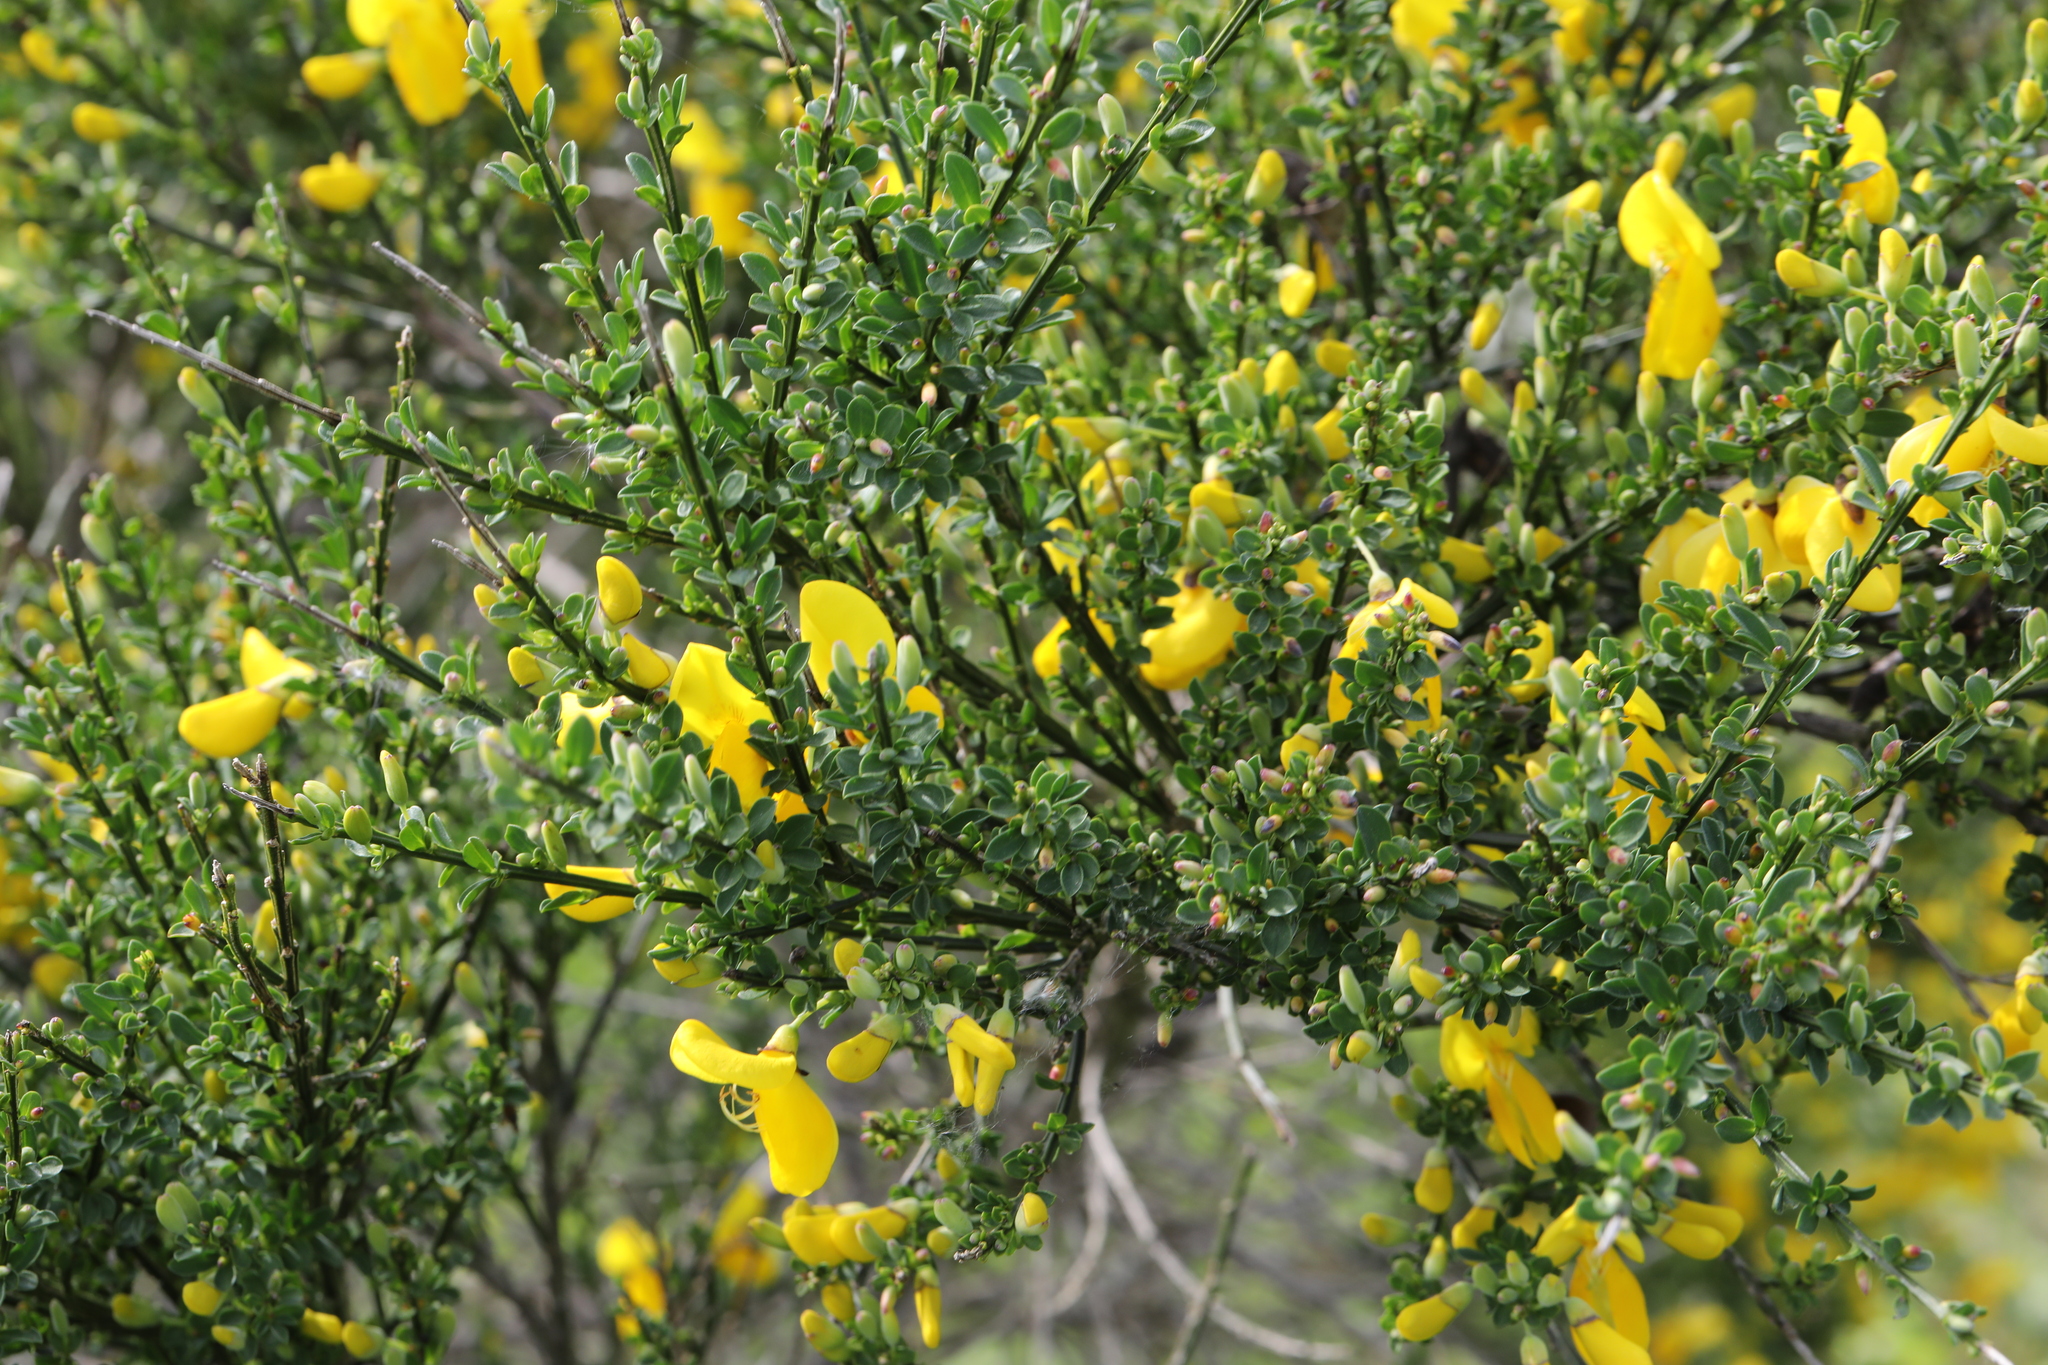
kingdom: Plantae
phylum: Tracheophyta
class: Magnoliopsida
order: Fabales
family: Fabaceae
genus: Cytisus
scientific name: Cytisus scoparius
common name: Scotch broom
